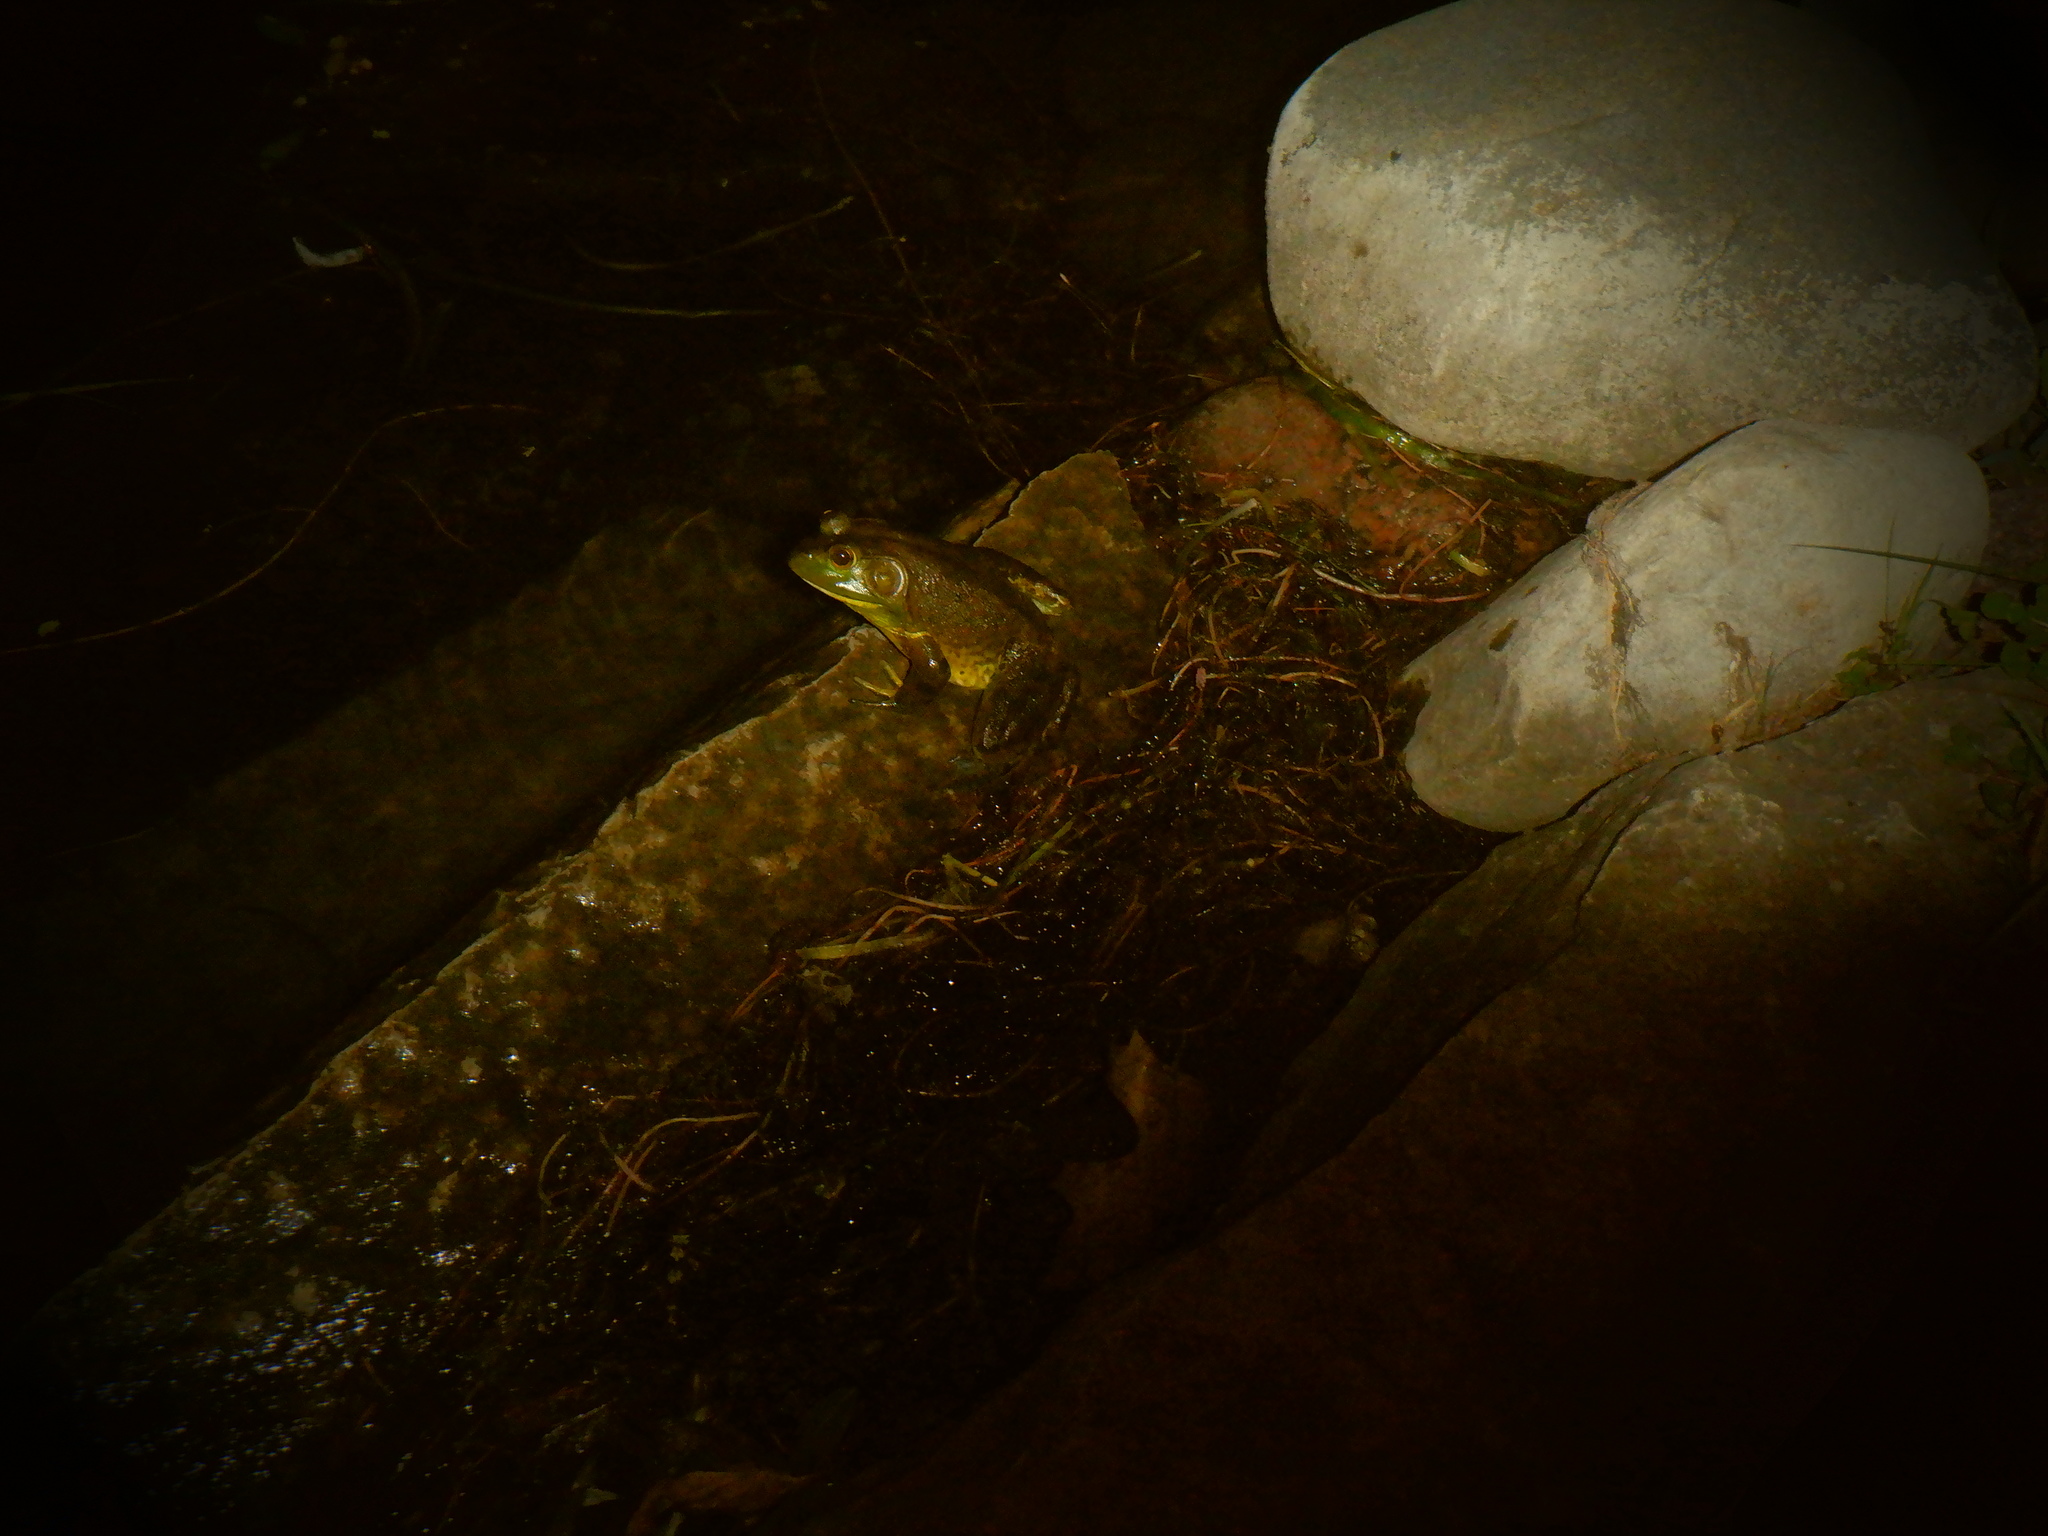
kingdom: Animalia
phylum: Chordata
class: Amphibia
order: Anura
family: Ranidae
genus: Lithobates
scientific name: Lithobates catesbeianus
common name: American bullfrog
